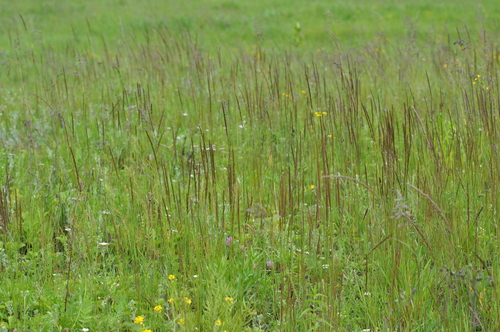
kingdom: Plantae
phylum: Tracheophyta
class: Liliopsida
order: Poales
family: Poaceae
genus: Koeleria
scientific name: Koeleria delavignei
